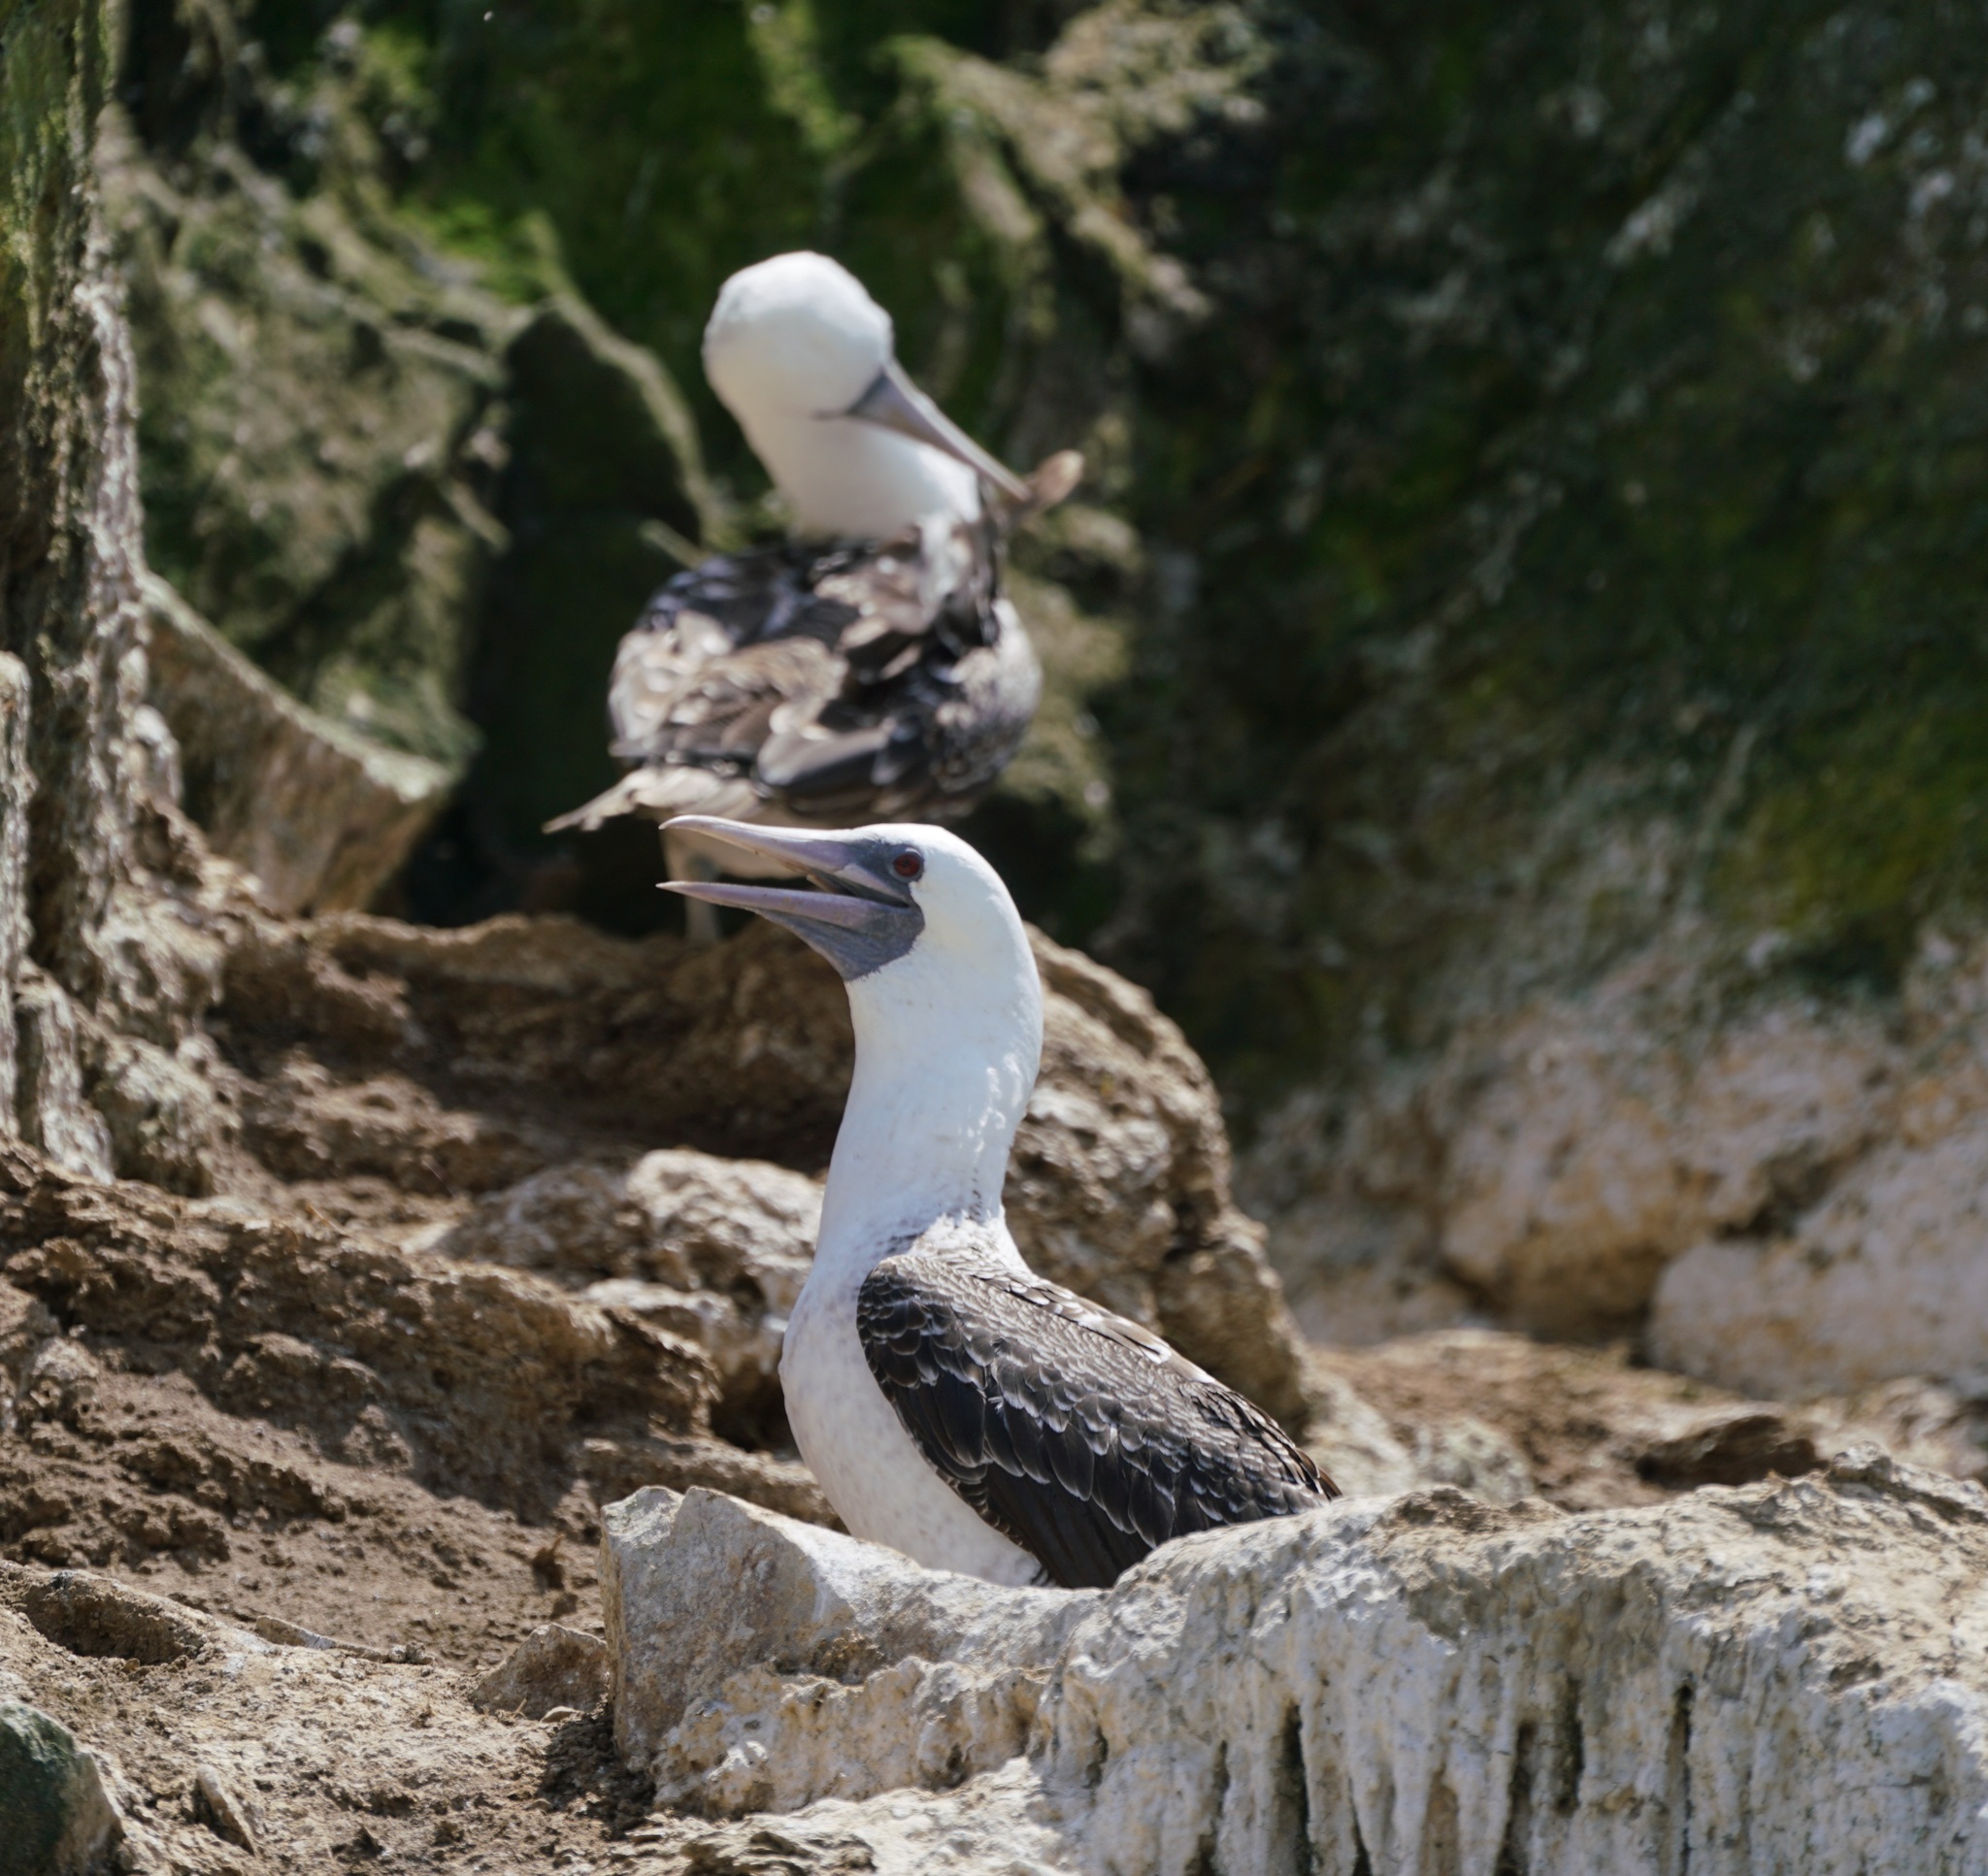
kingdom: Animalia
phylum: Chordata
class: Aves
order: Suliformes
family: Sulidae
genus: Sula
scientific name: Sula variegata
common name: Peruvian booby
